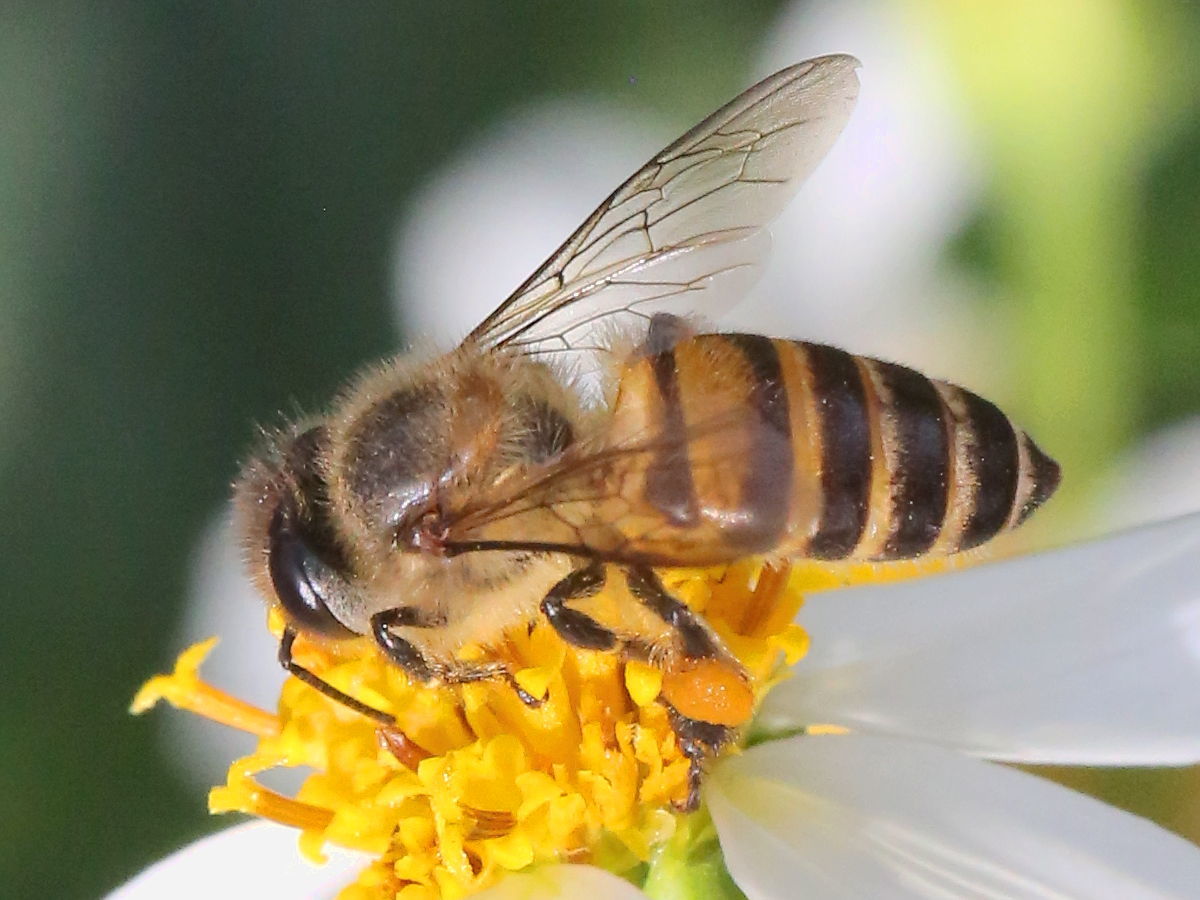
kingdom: Animalia
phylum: Arthropoda
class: Insecta
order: Hymenoptera
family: Apidae
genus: Apis
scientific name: Apis cerana
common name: Honey bee
